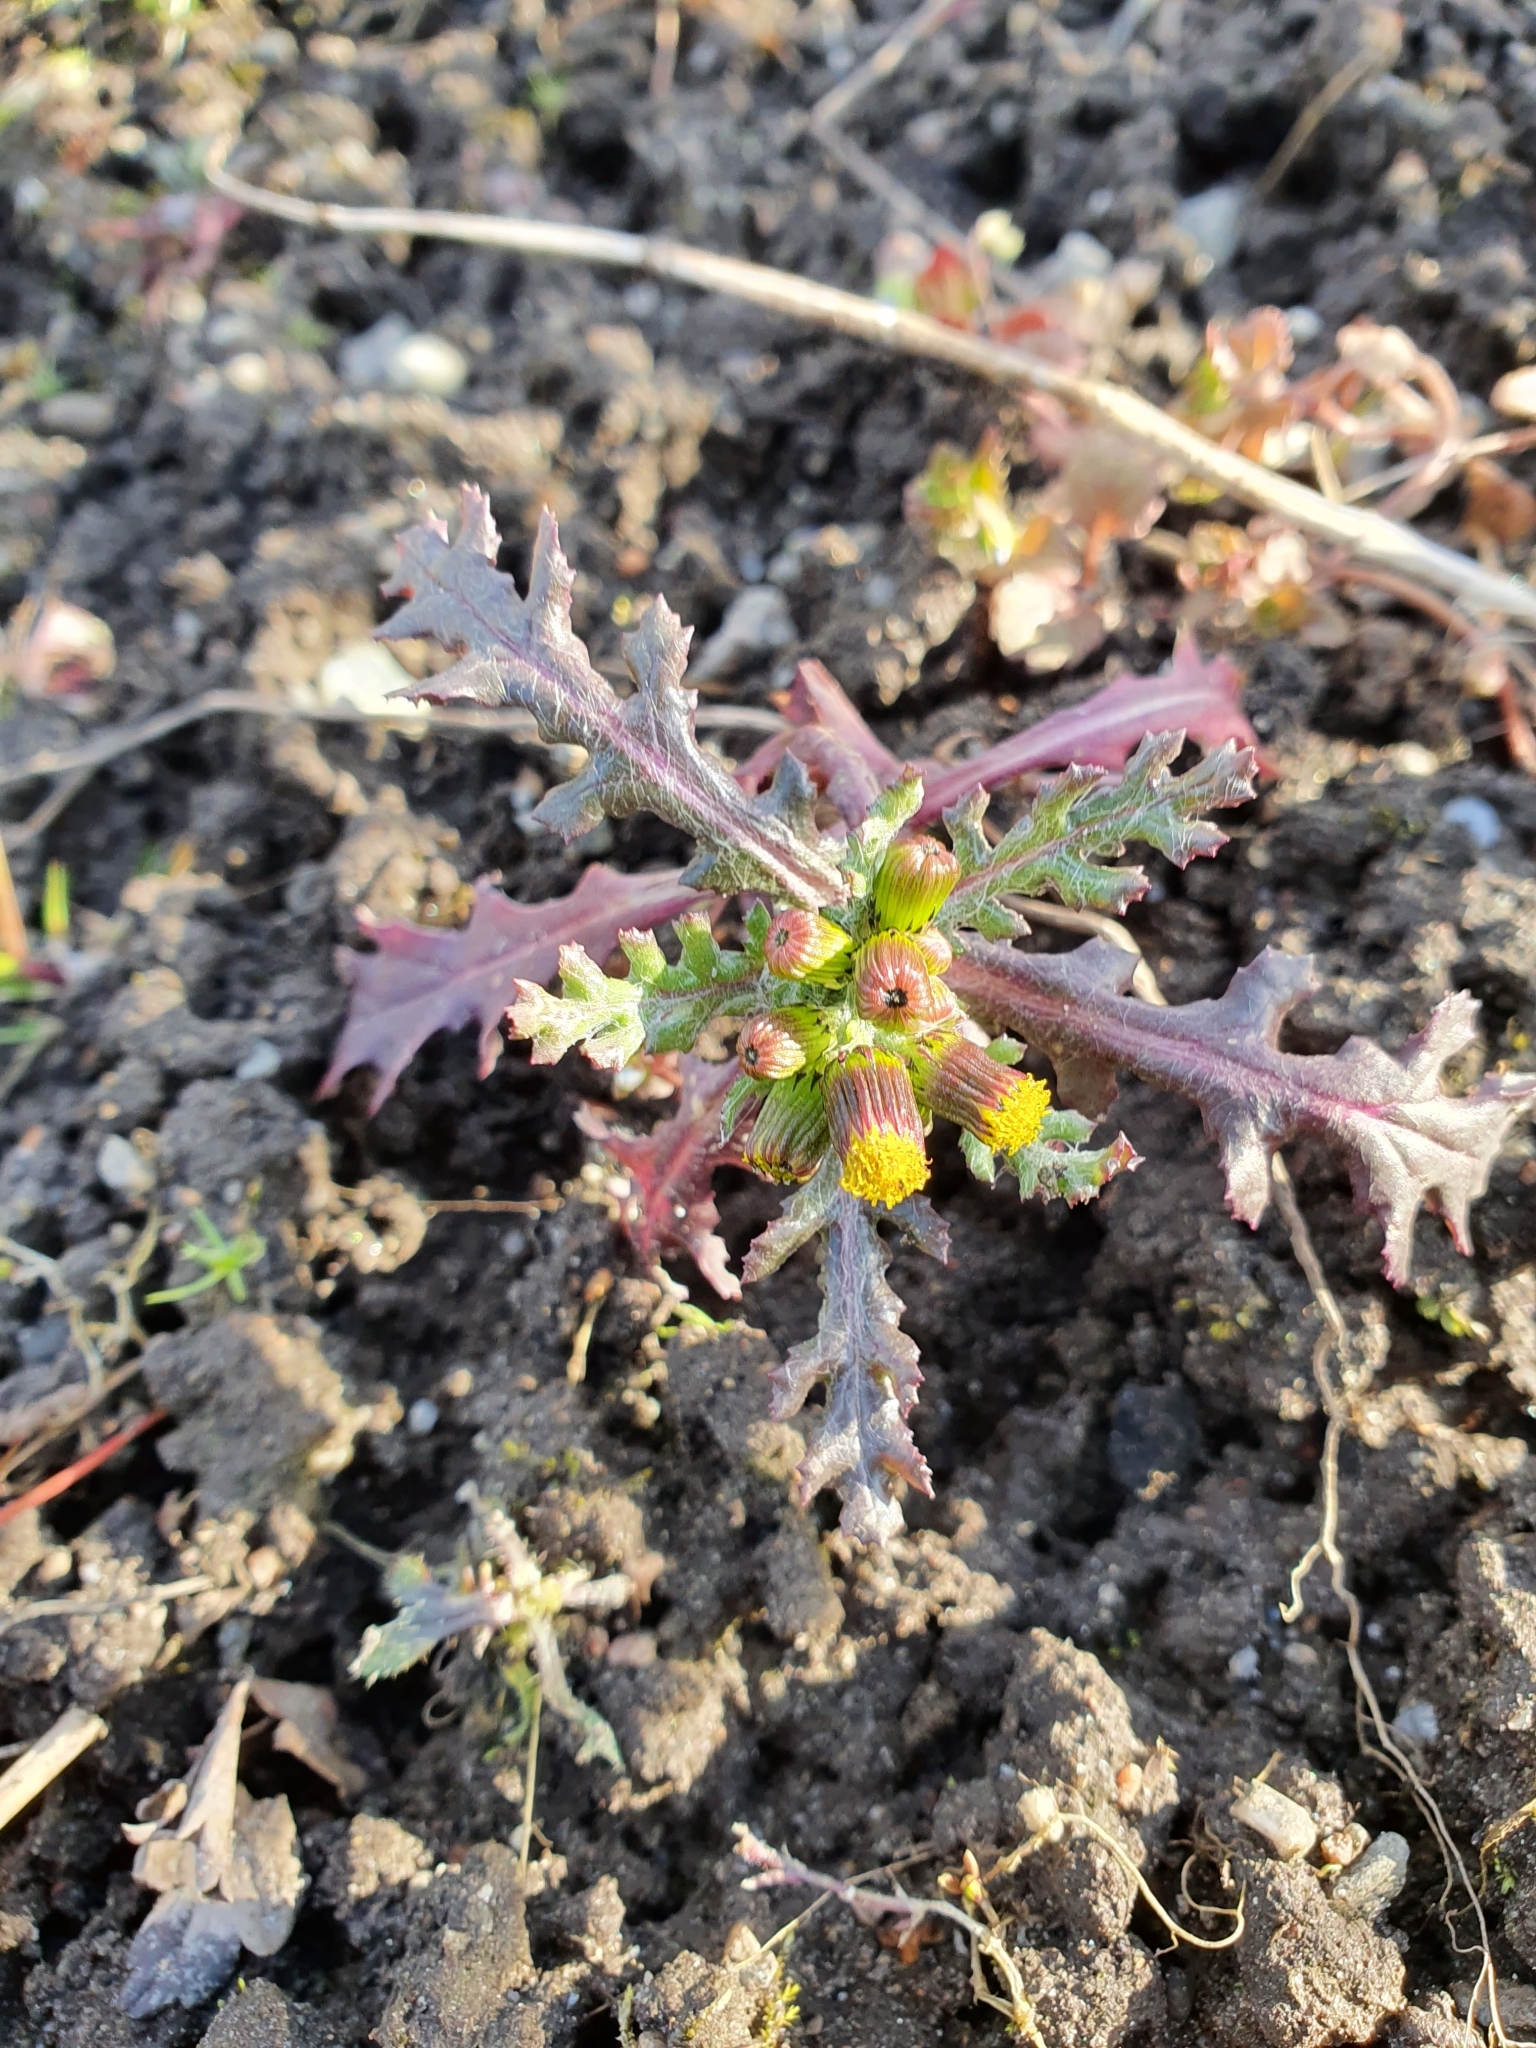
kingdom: Plantae
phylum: Tracheophyta
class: Magnoliopsida
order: Asterales
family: Asteraceae
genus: Senecio
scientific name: Senecio vulgaris
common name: Old-man-in-the-spring
